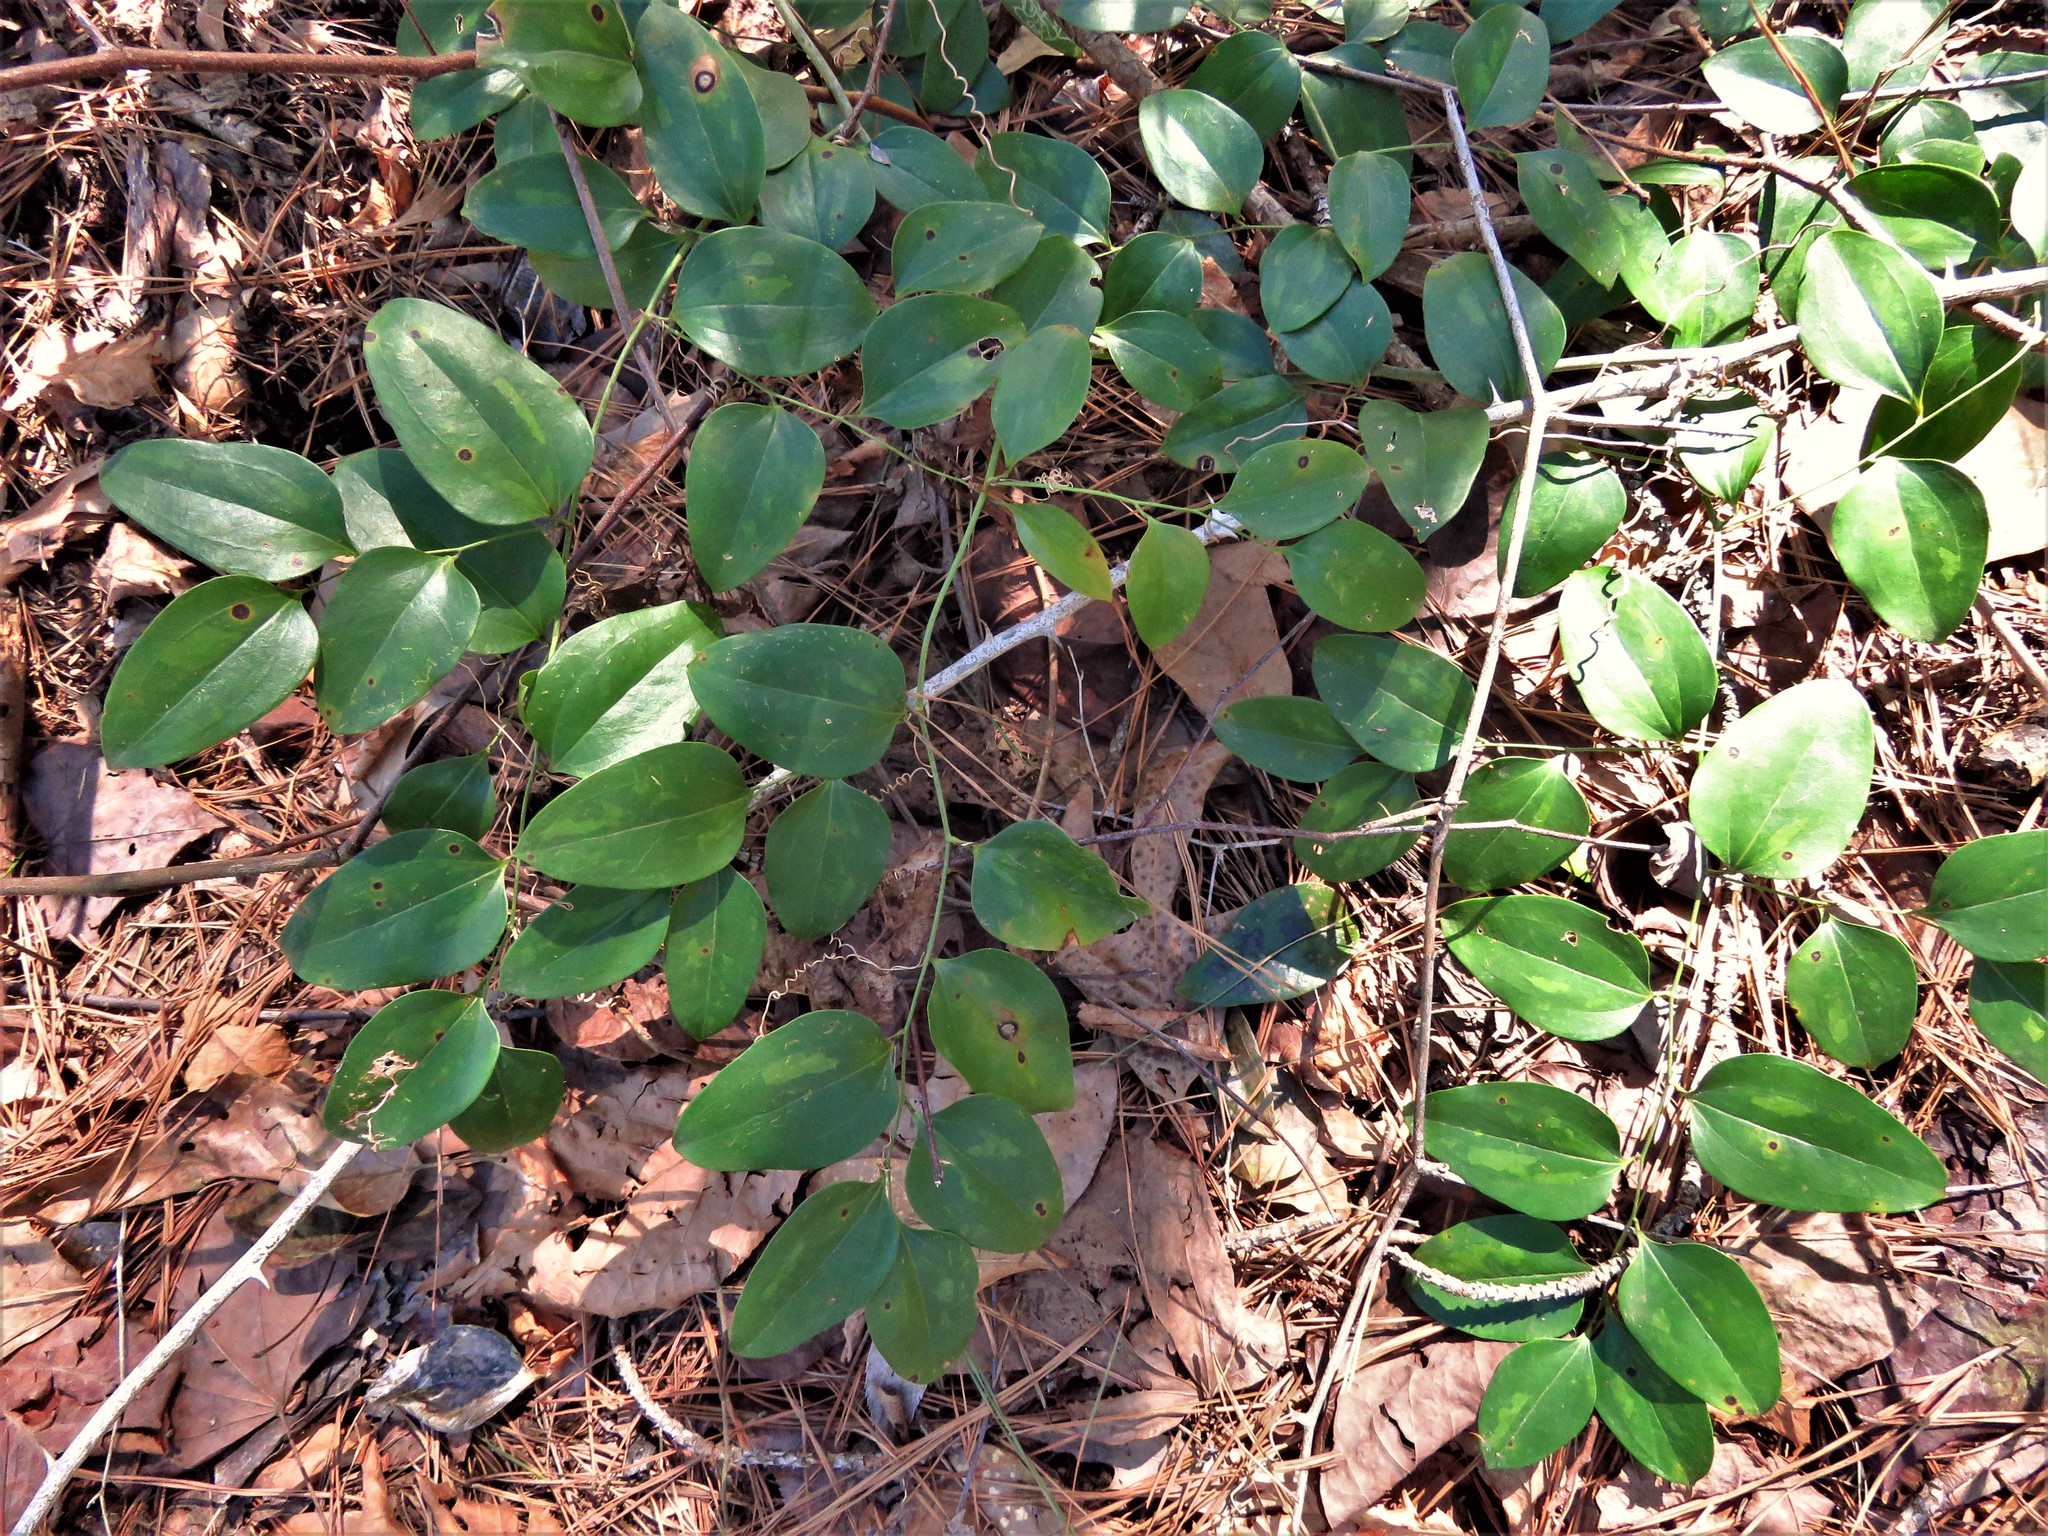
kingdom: Plantae
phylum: Tracheophyta
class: Liliopsida
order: Liliales
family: Smilacaceae
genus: Smilax
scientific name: Smilax maritima
